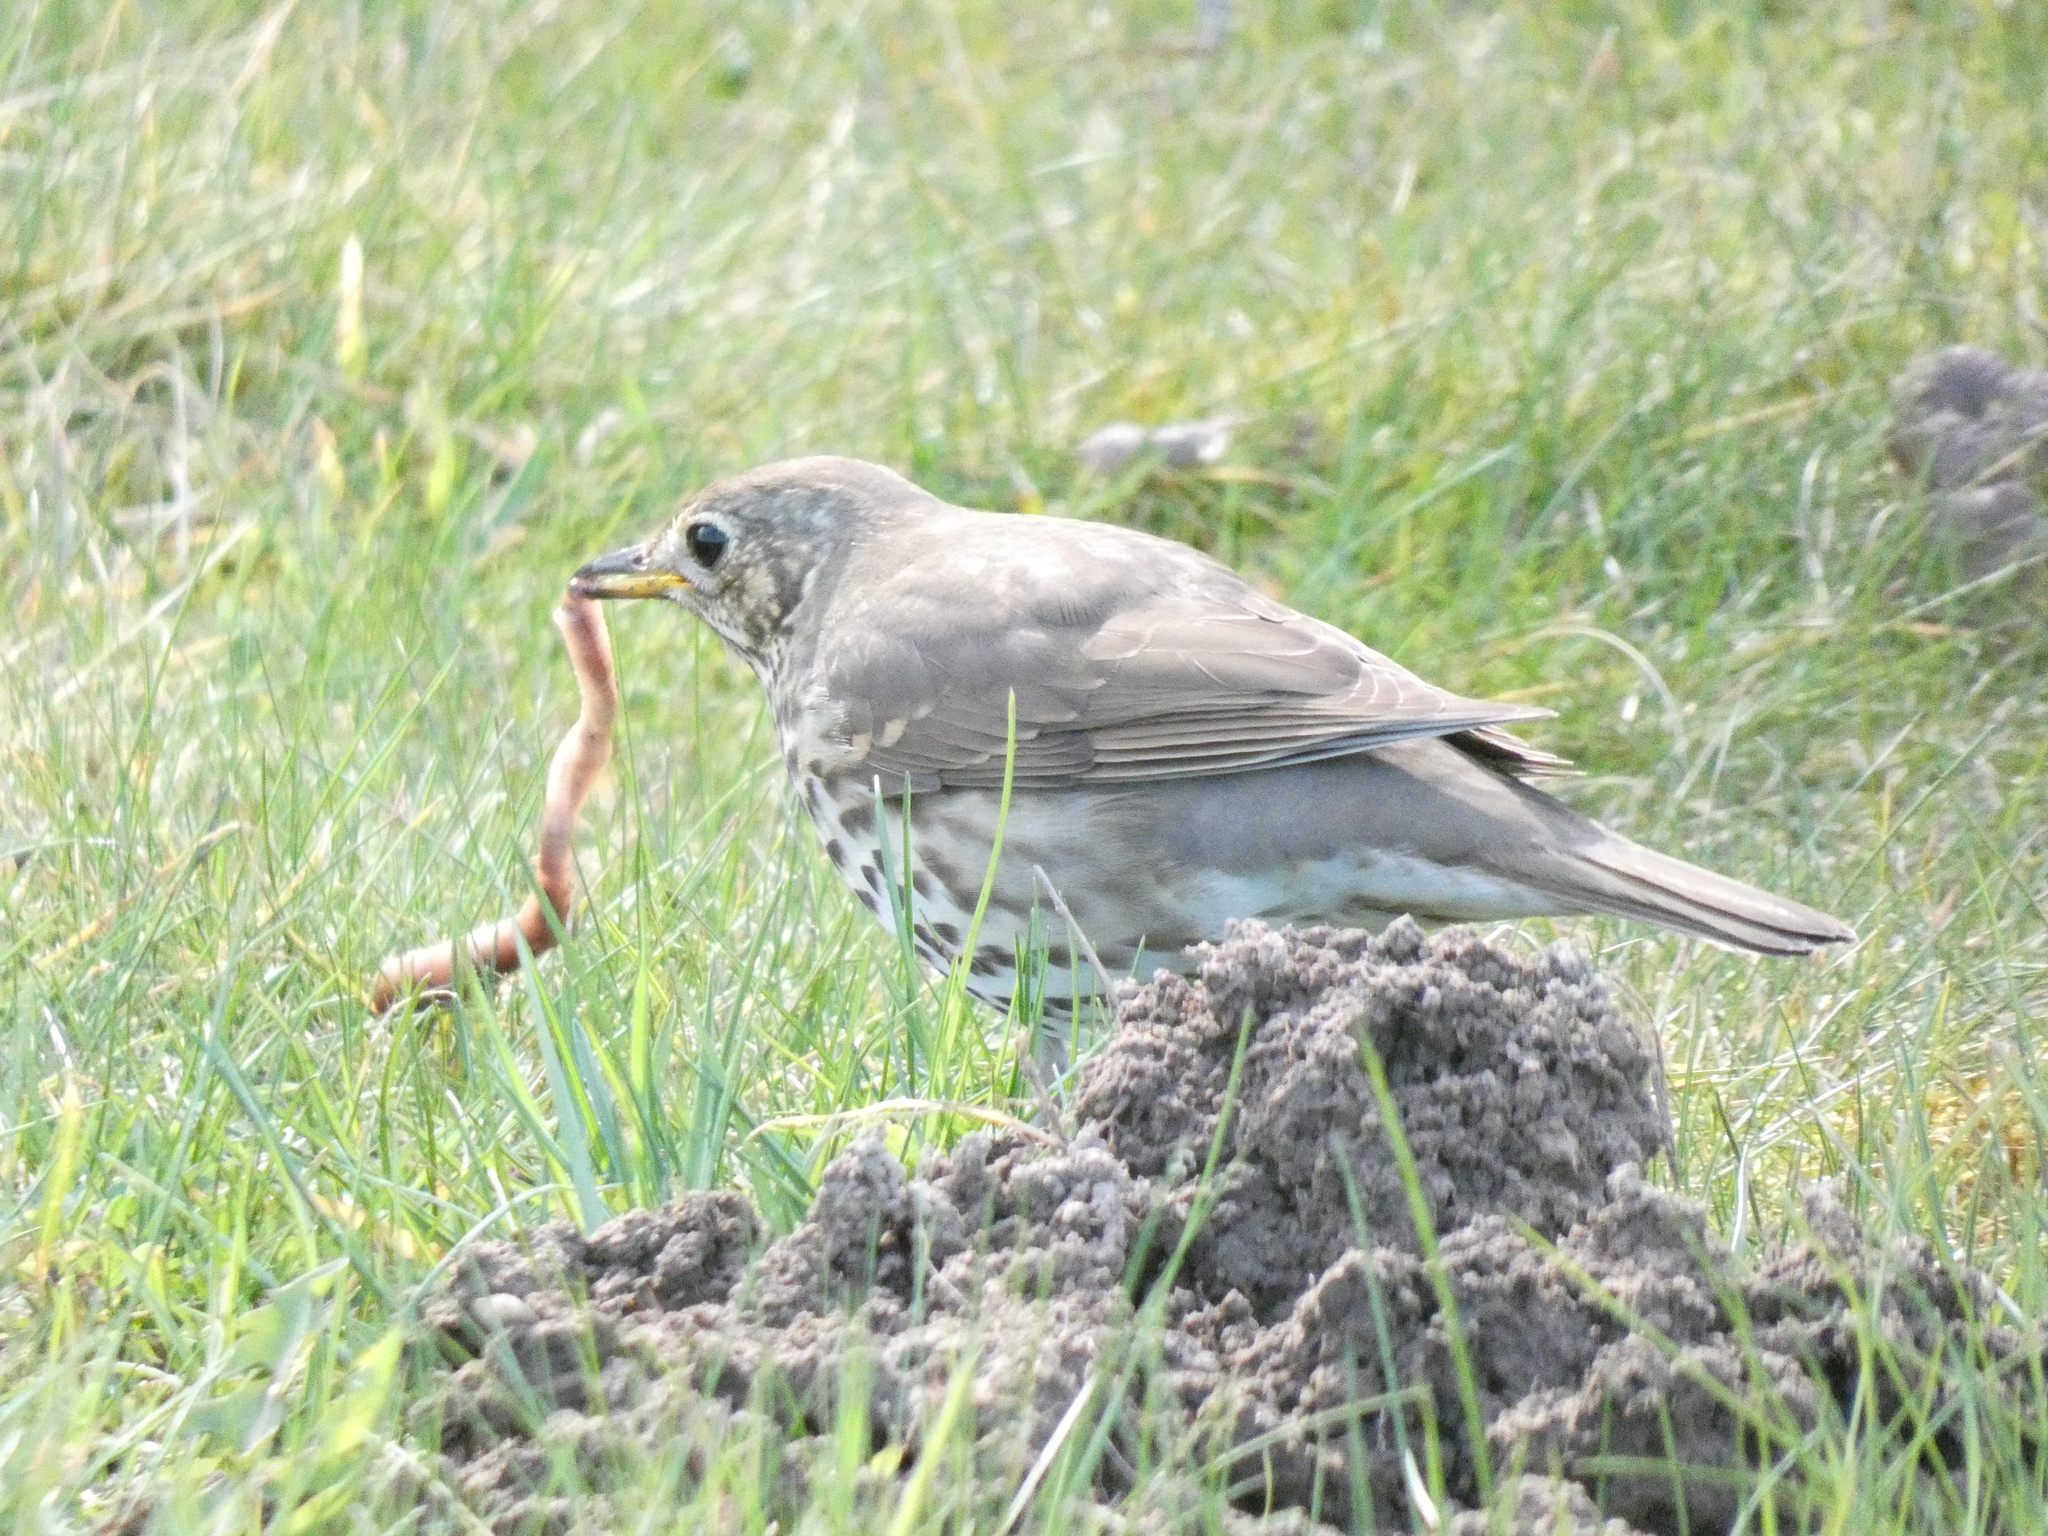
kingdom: Animalia
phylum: Chordata
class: Aves
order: Passeriformes
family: Turdidae
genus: Turdus
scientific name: Turdus philomelos
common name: Song thrush
